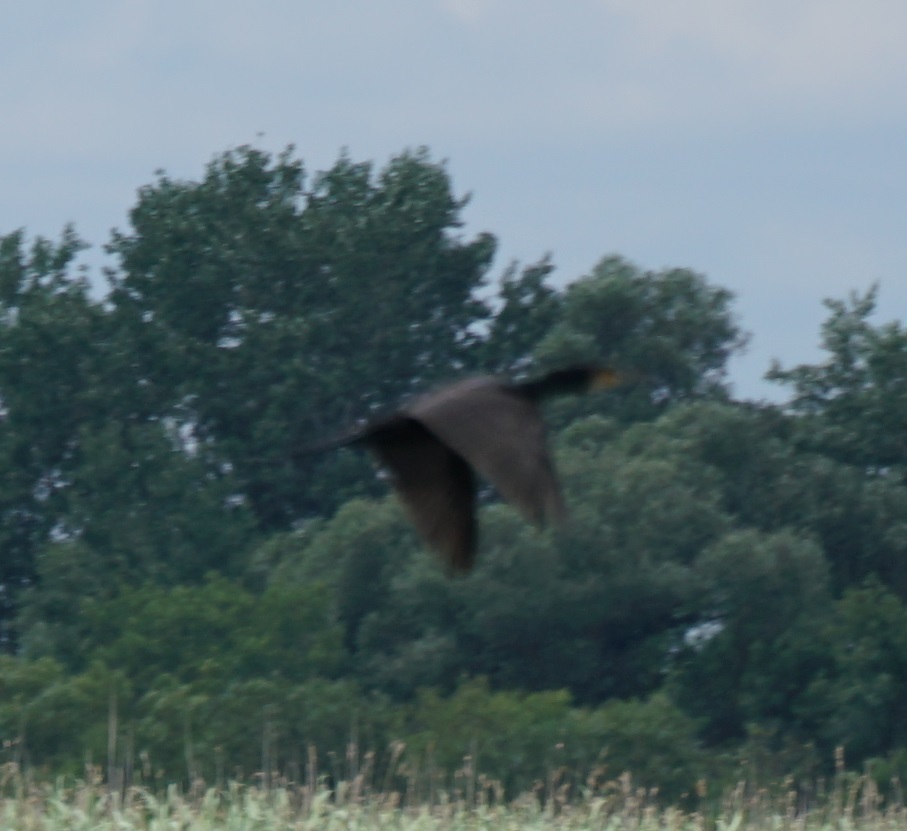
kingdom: Animalia
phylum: Chordata
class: Aves
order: Suliformes
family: Phalacrocoracidae
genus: Phalacrocorax
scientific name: Phalacrocorax carbo
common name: Great cormorant
